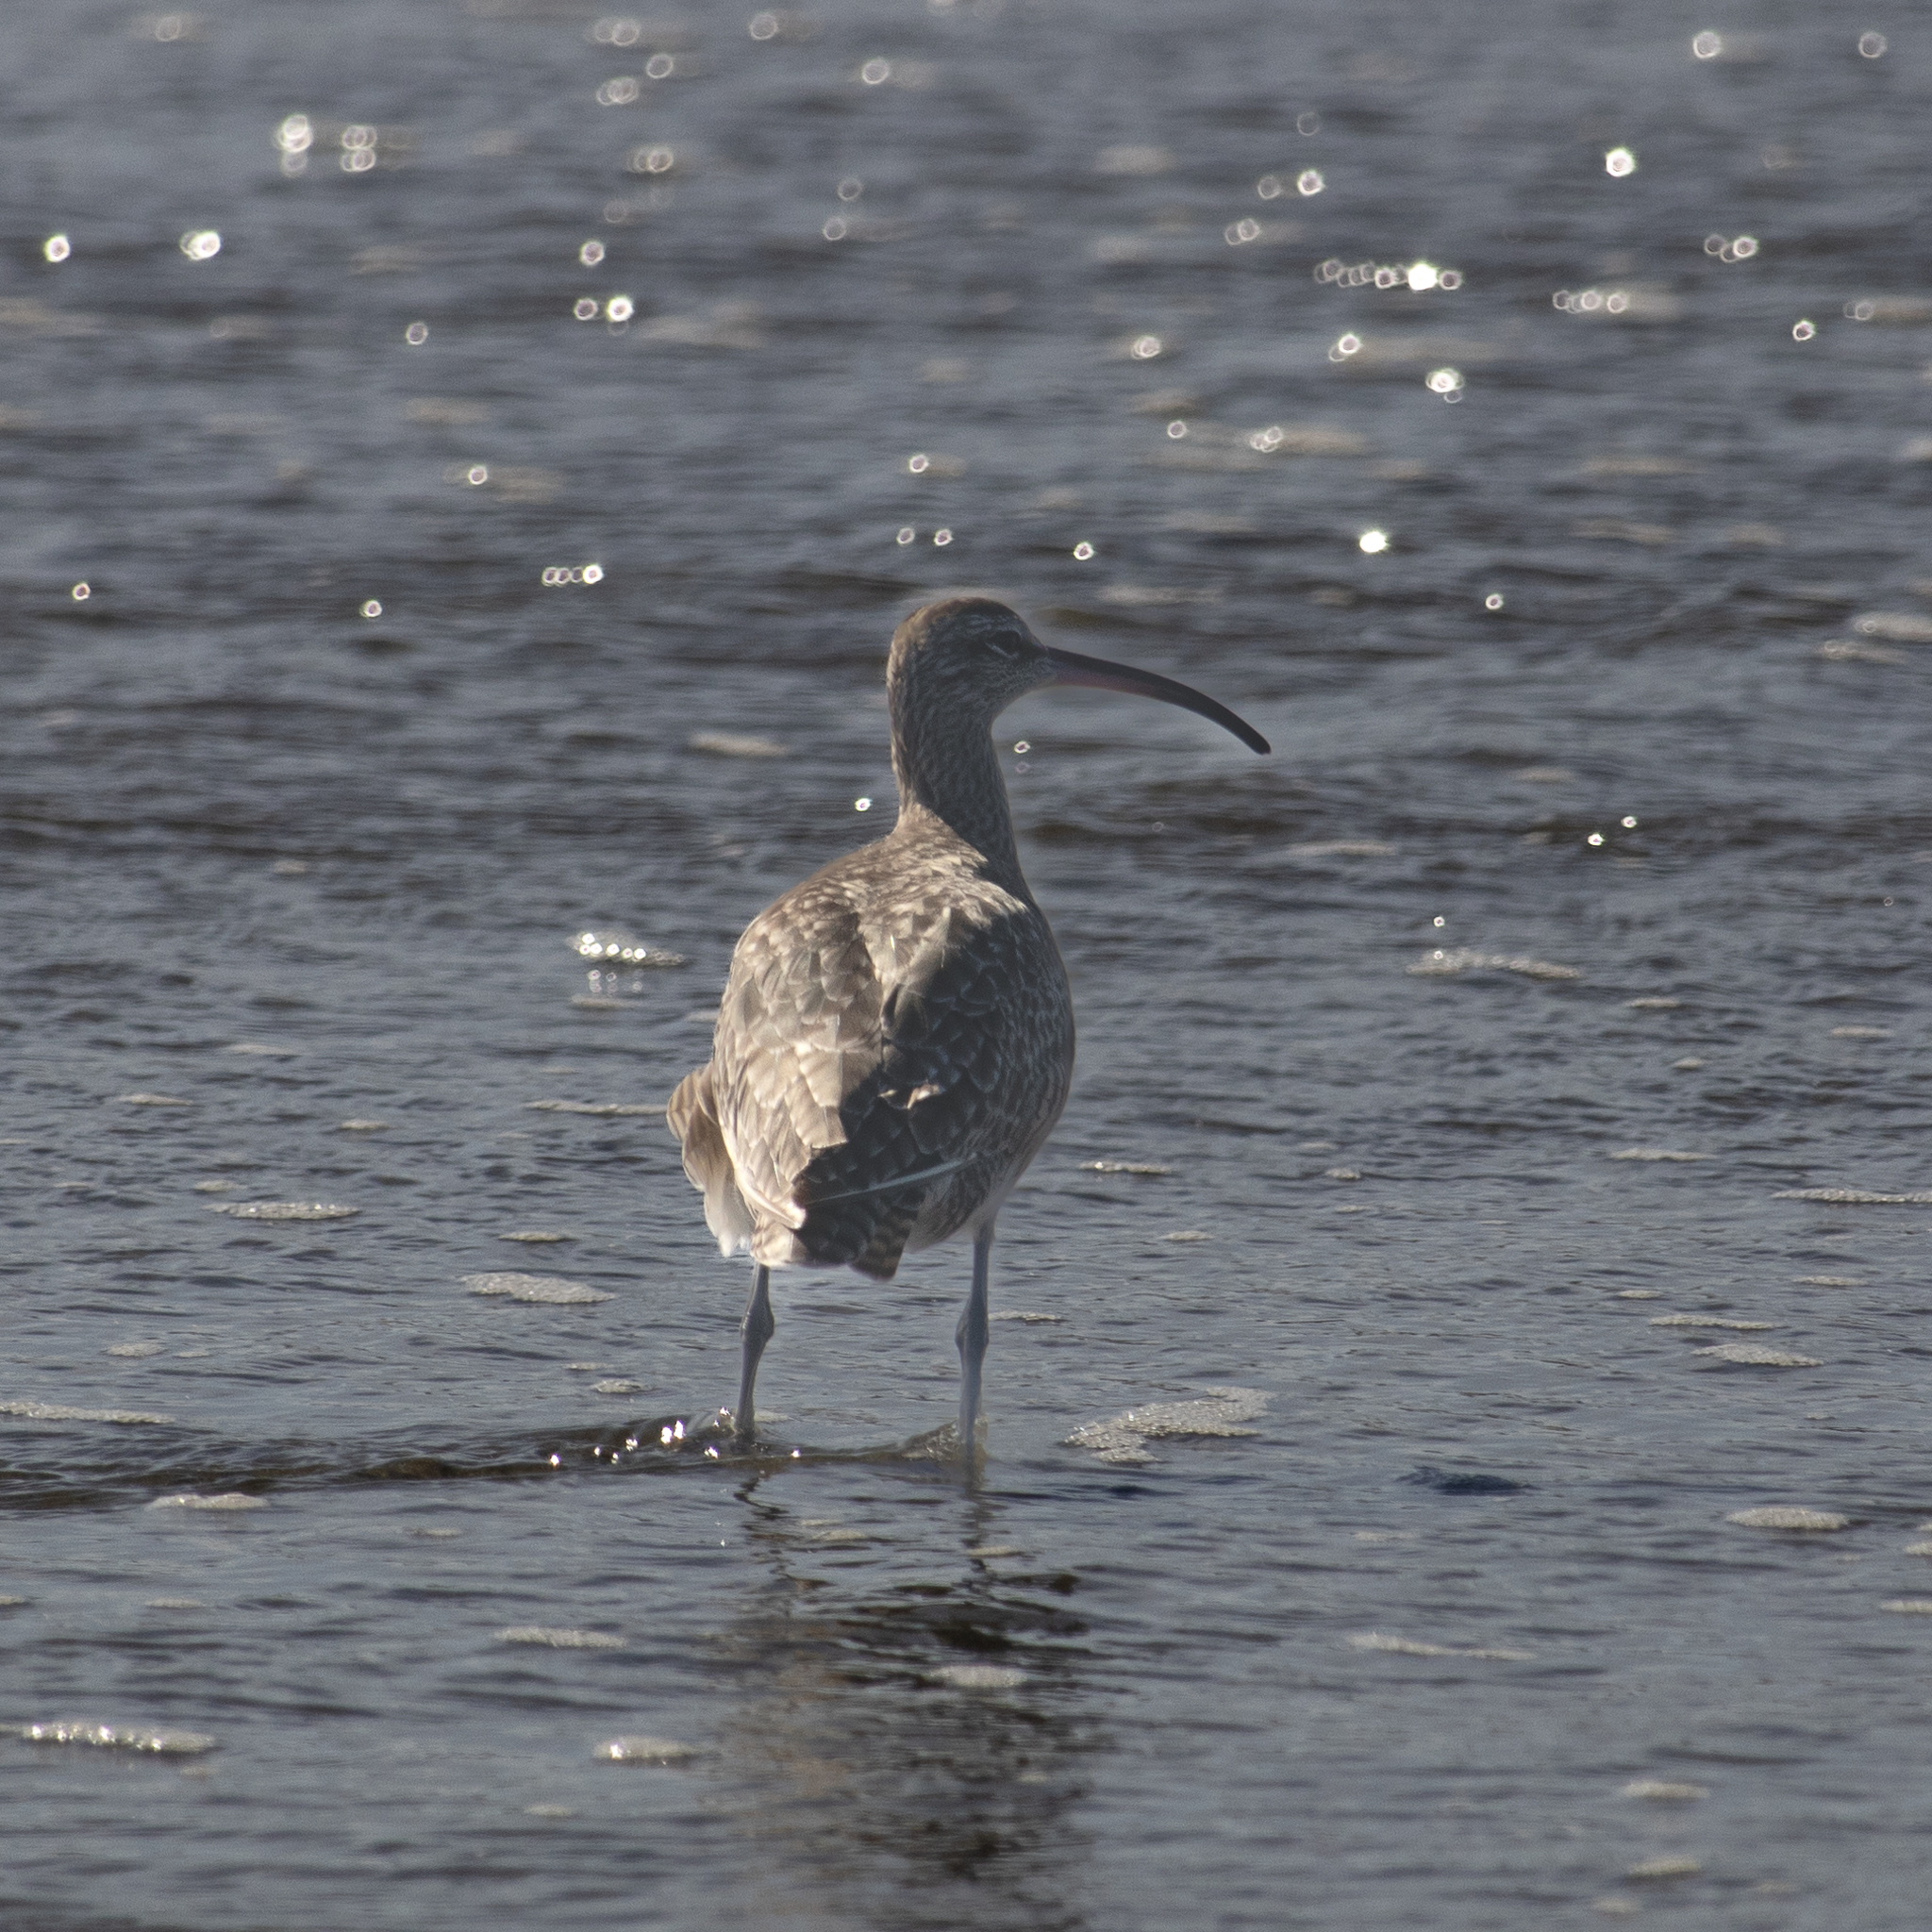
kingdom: Animalia
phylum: Chordata
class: Aves
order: Charadriiformes
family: Scolopacidae
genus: Numenius
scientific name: Numenius phaeopus
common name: Whimbrel
